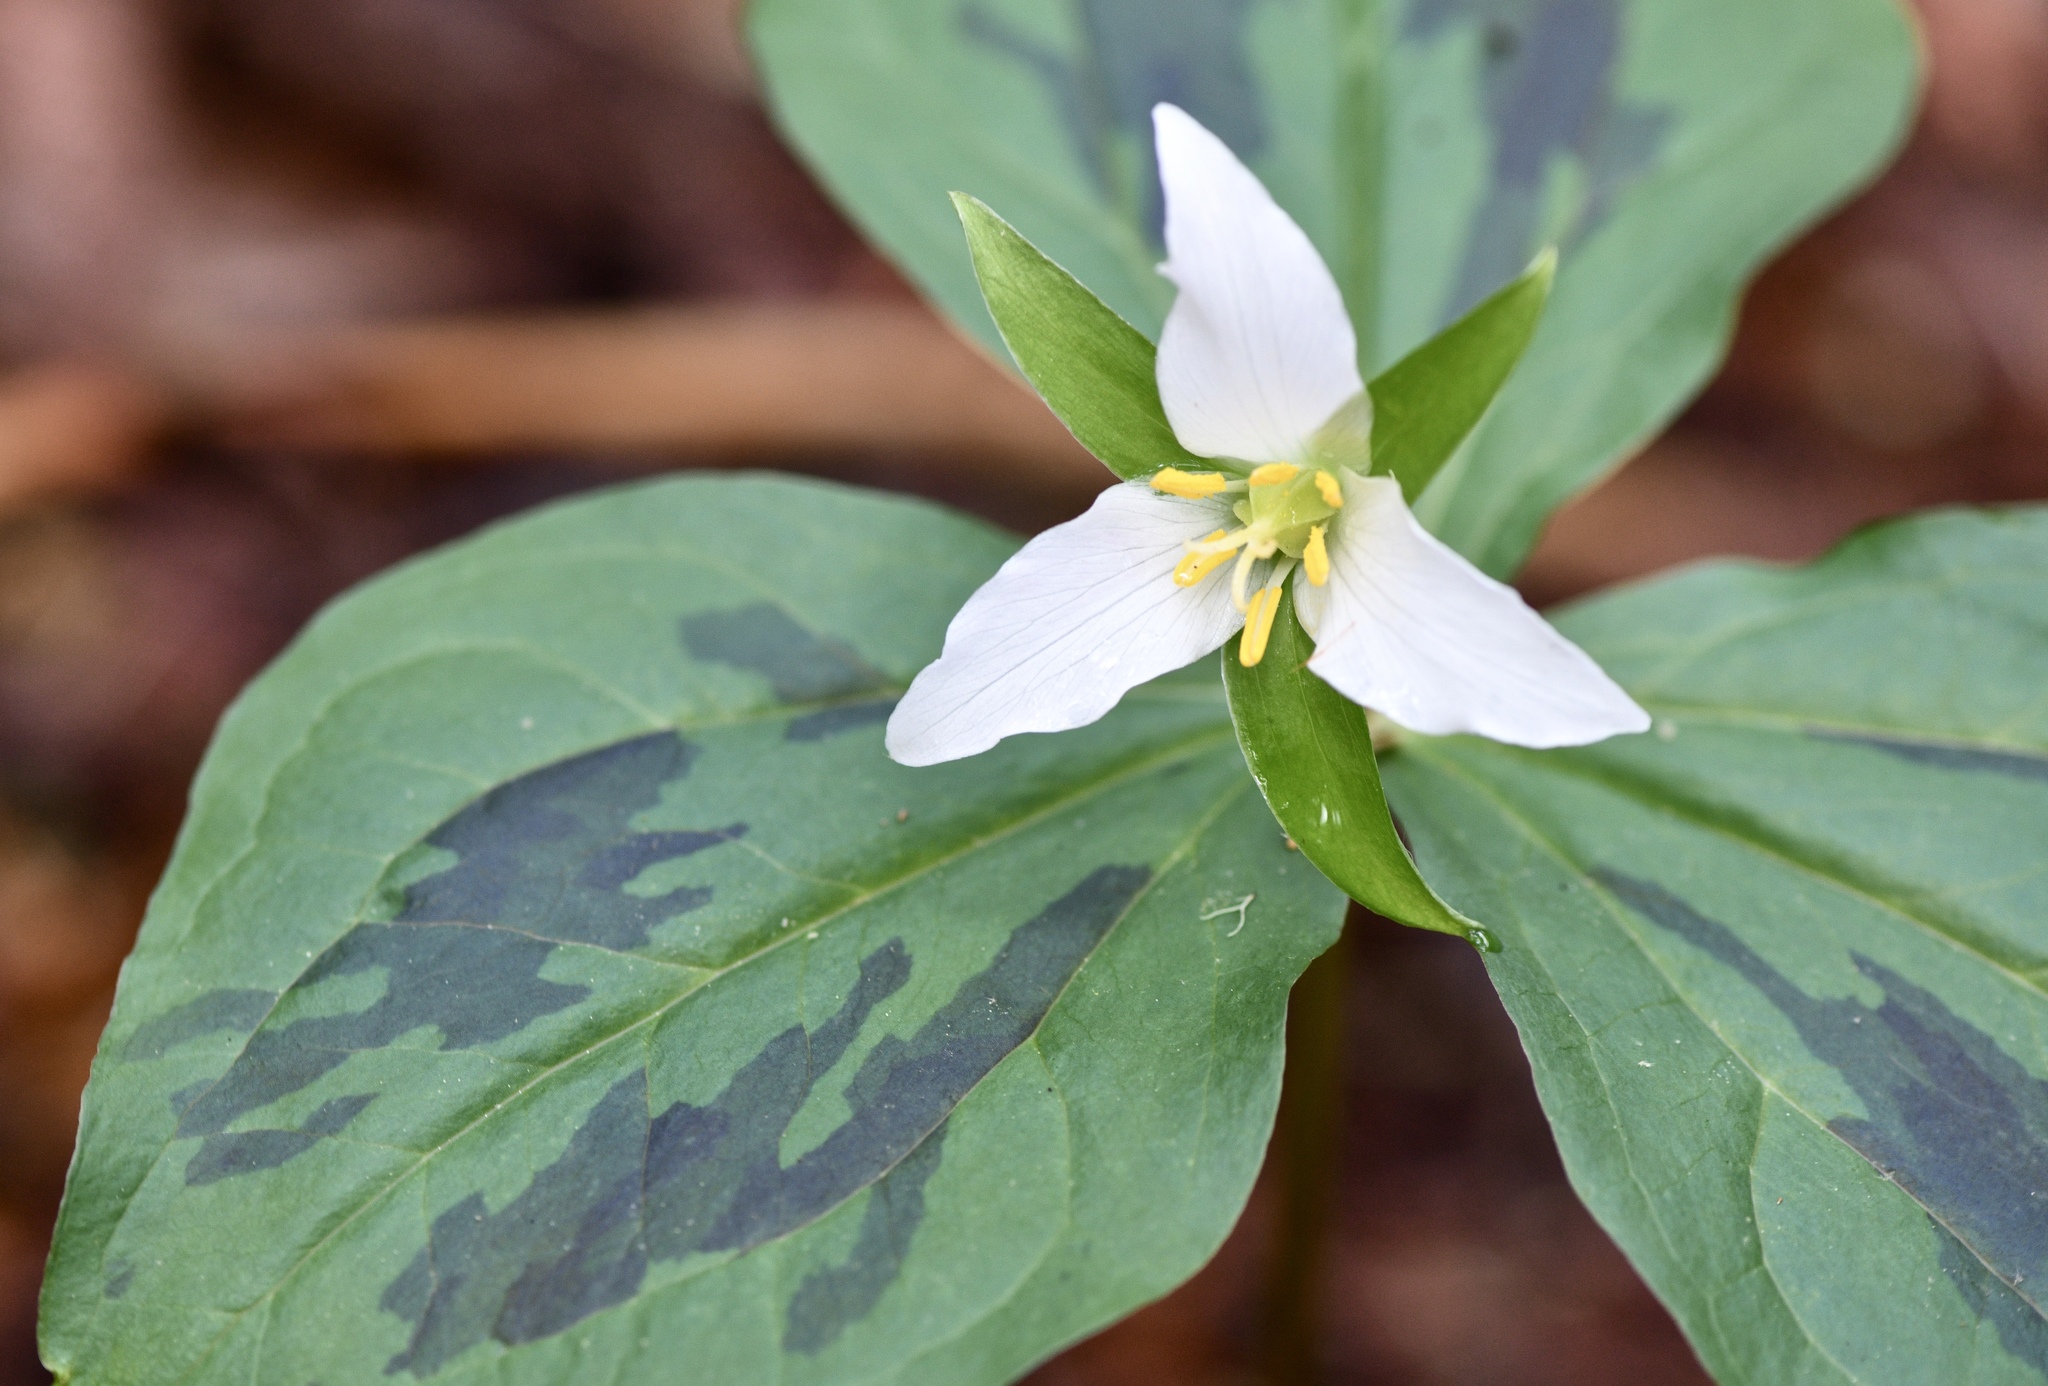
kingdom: Plantae
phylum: Tracheophyta
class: Liliopsida
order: Liliales
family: Melanthiaceae
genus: Trillium
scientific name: Trillium ovatum
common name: Pacific trillium
